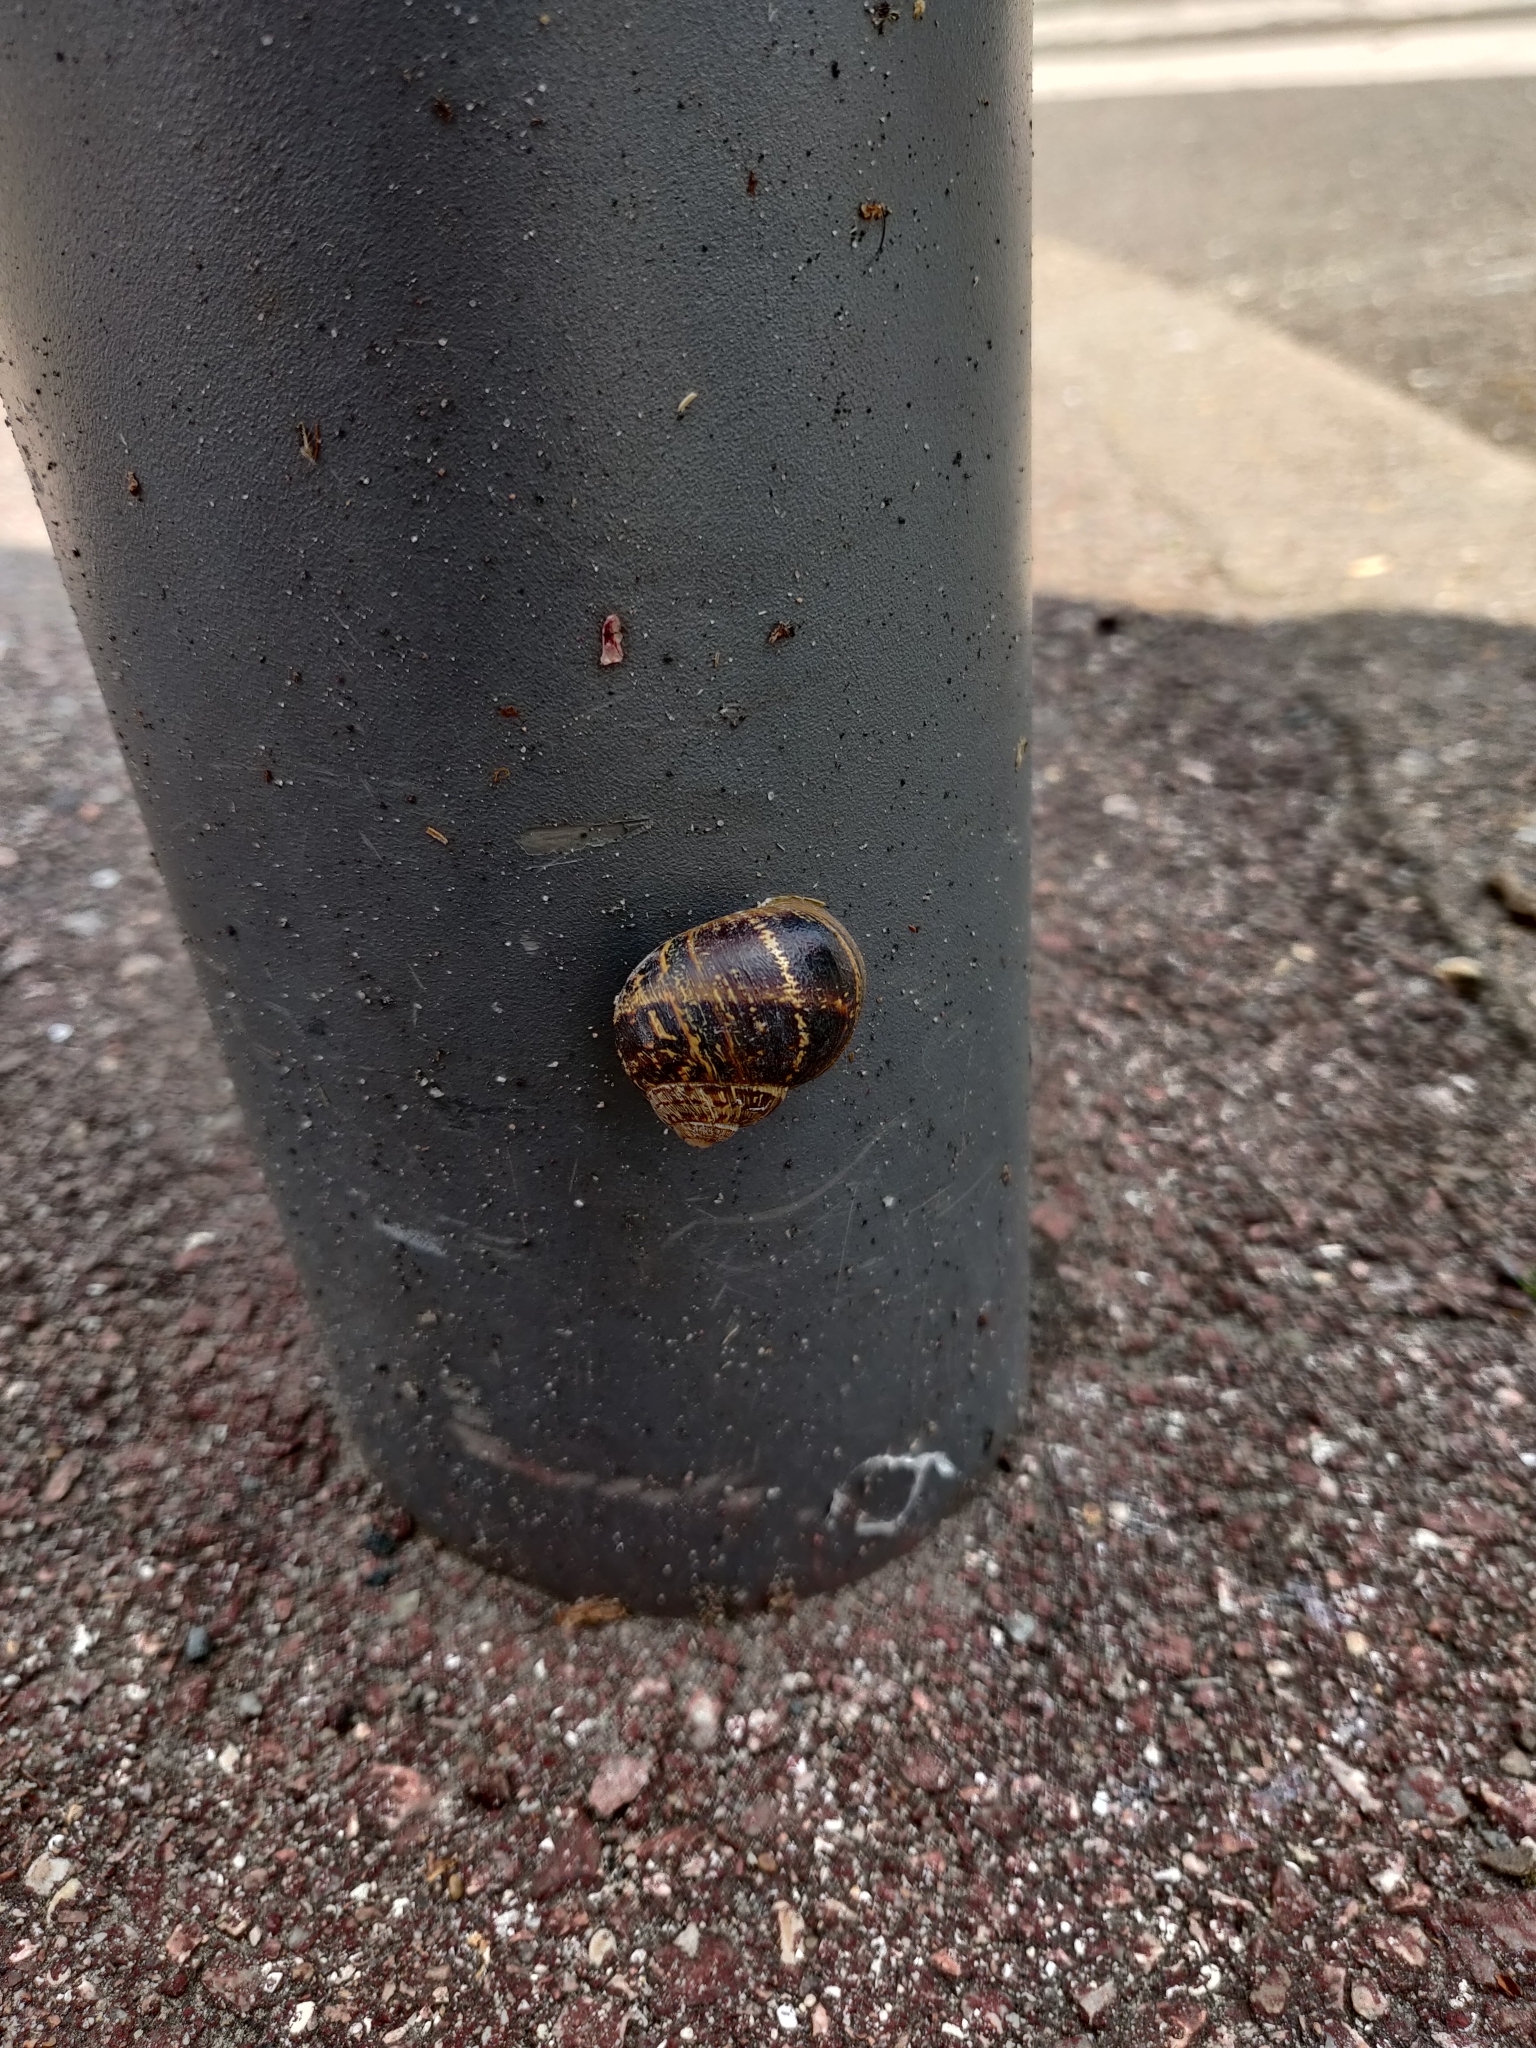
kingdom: Animalia
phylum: Mollusca
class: Gastropoda
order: Stylommatophora
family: Helicidae
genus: Cornu
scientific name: Cornu aspersum
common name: Brown garden snail
